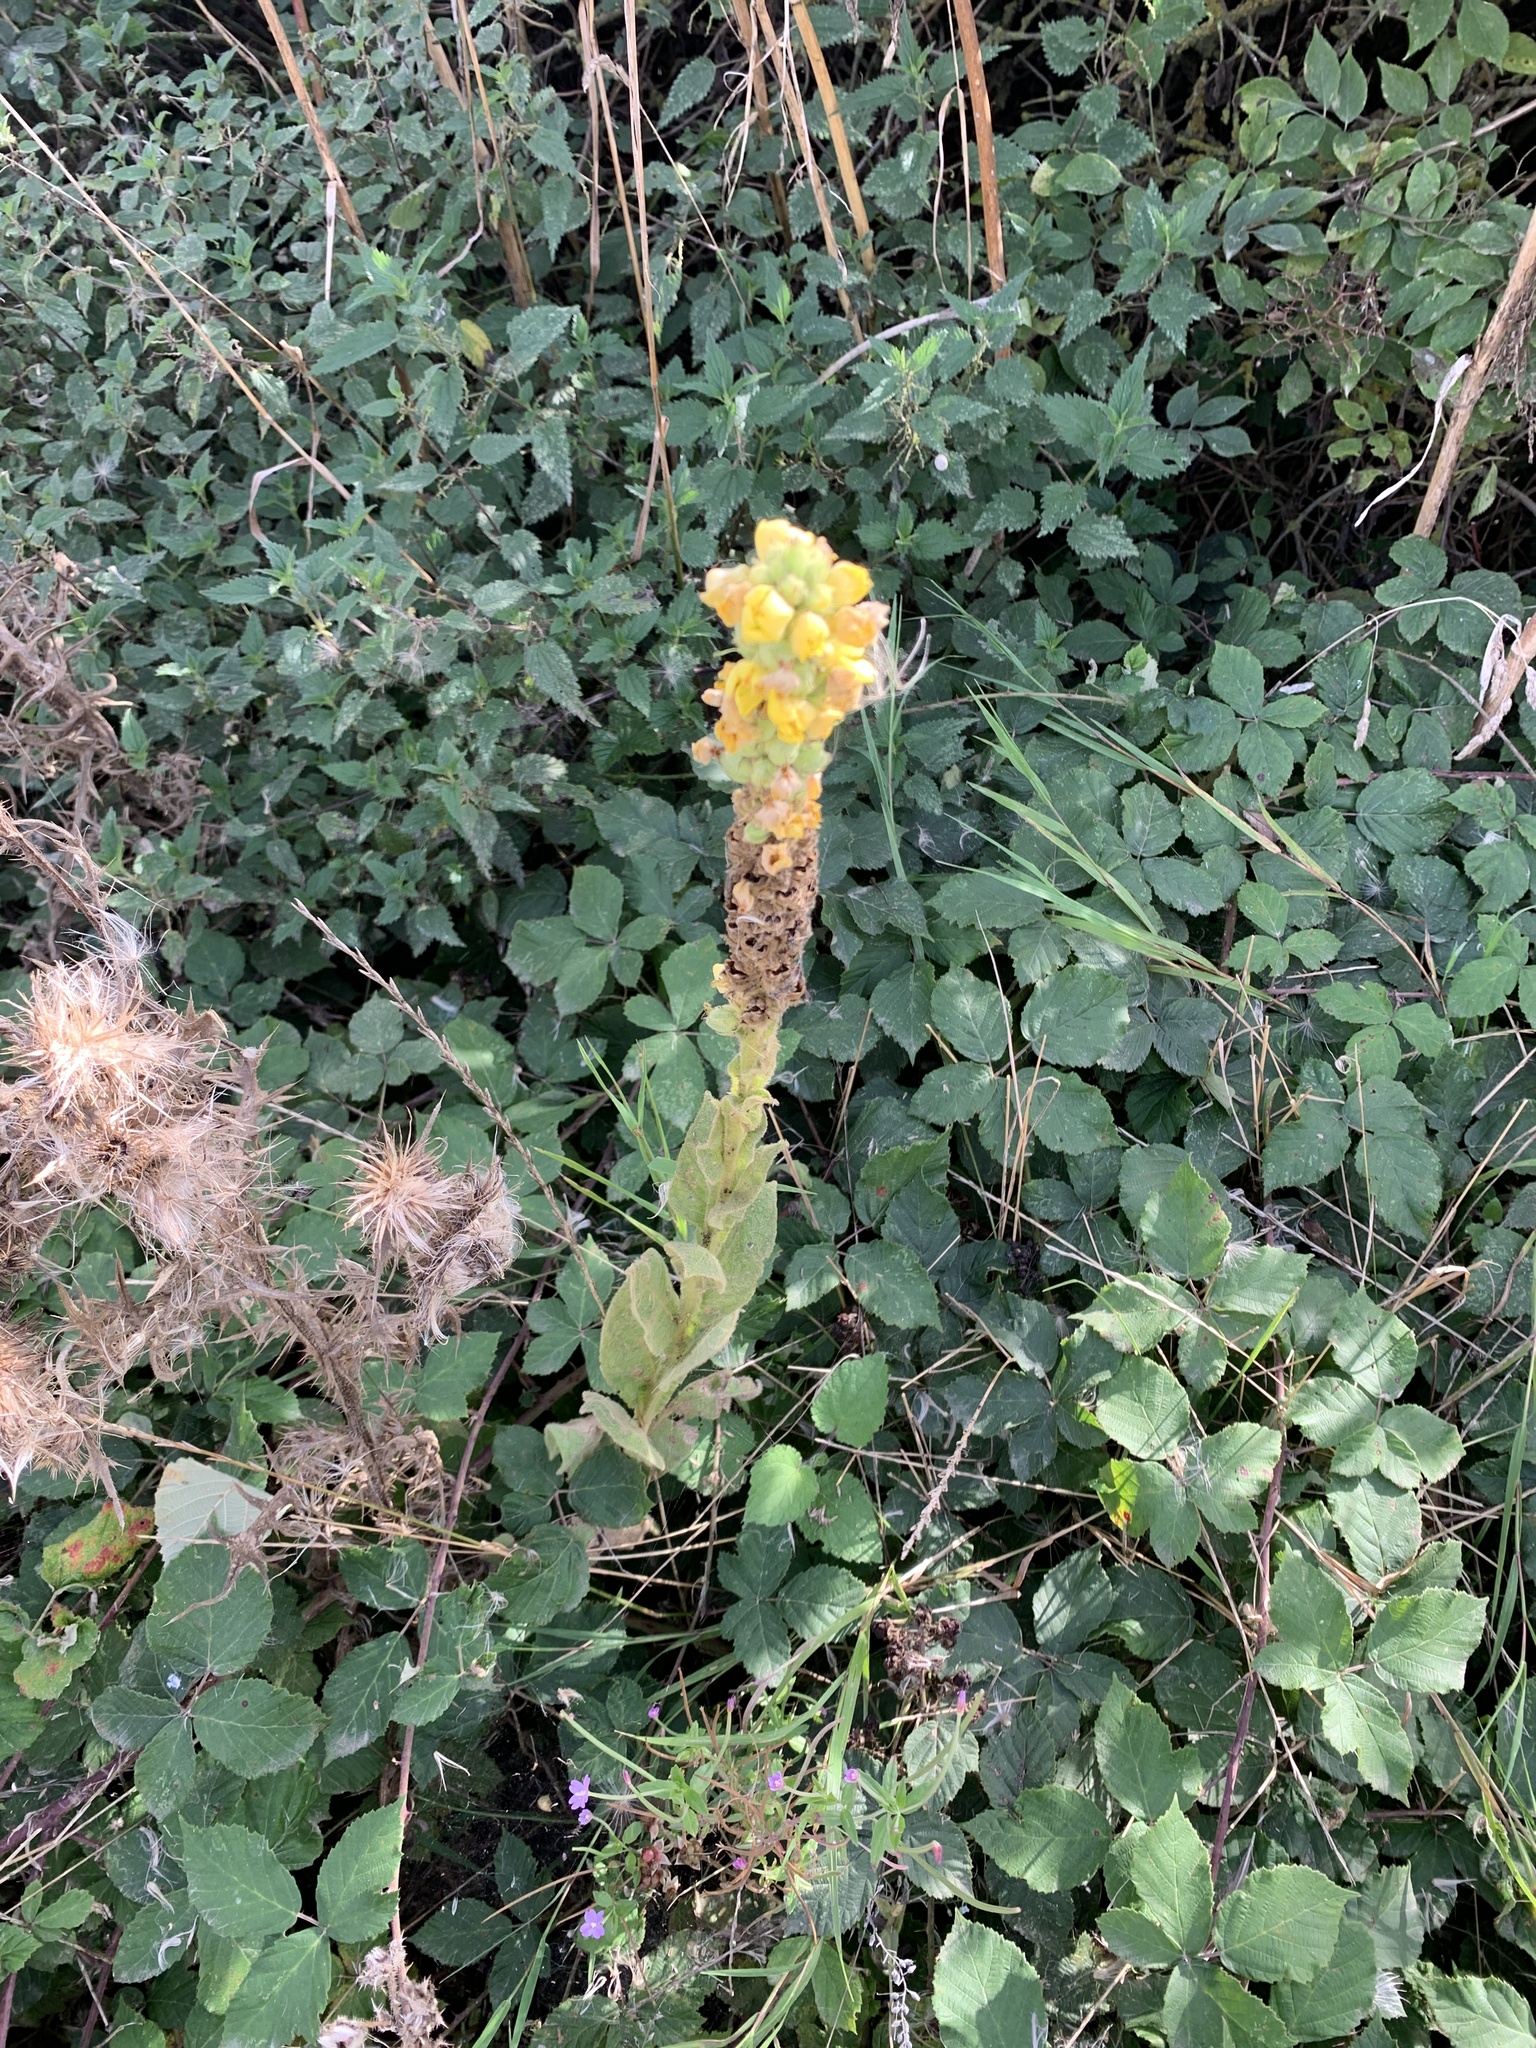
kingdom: Plantae
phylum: Tracheophyta
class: Magnoliopsida
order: Lamiales
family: Scrophulariaceae
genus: Verbascum
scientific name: Verbascum thapsus
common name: Common mullein
